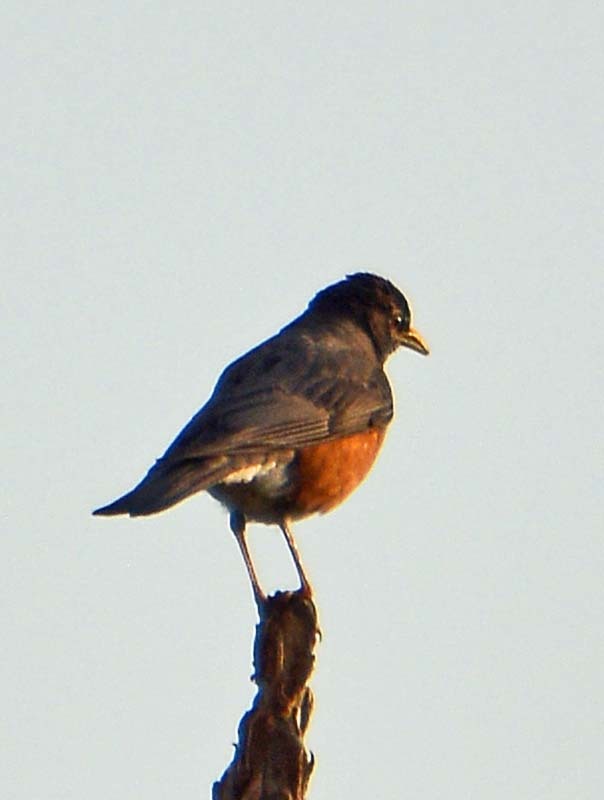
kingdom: Animalia
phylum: Chordata
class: Aves
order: Passeriformes
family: Turdidae
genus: Turdus
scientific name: Turdus migratorius
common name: American robin
